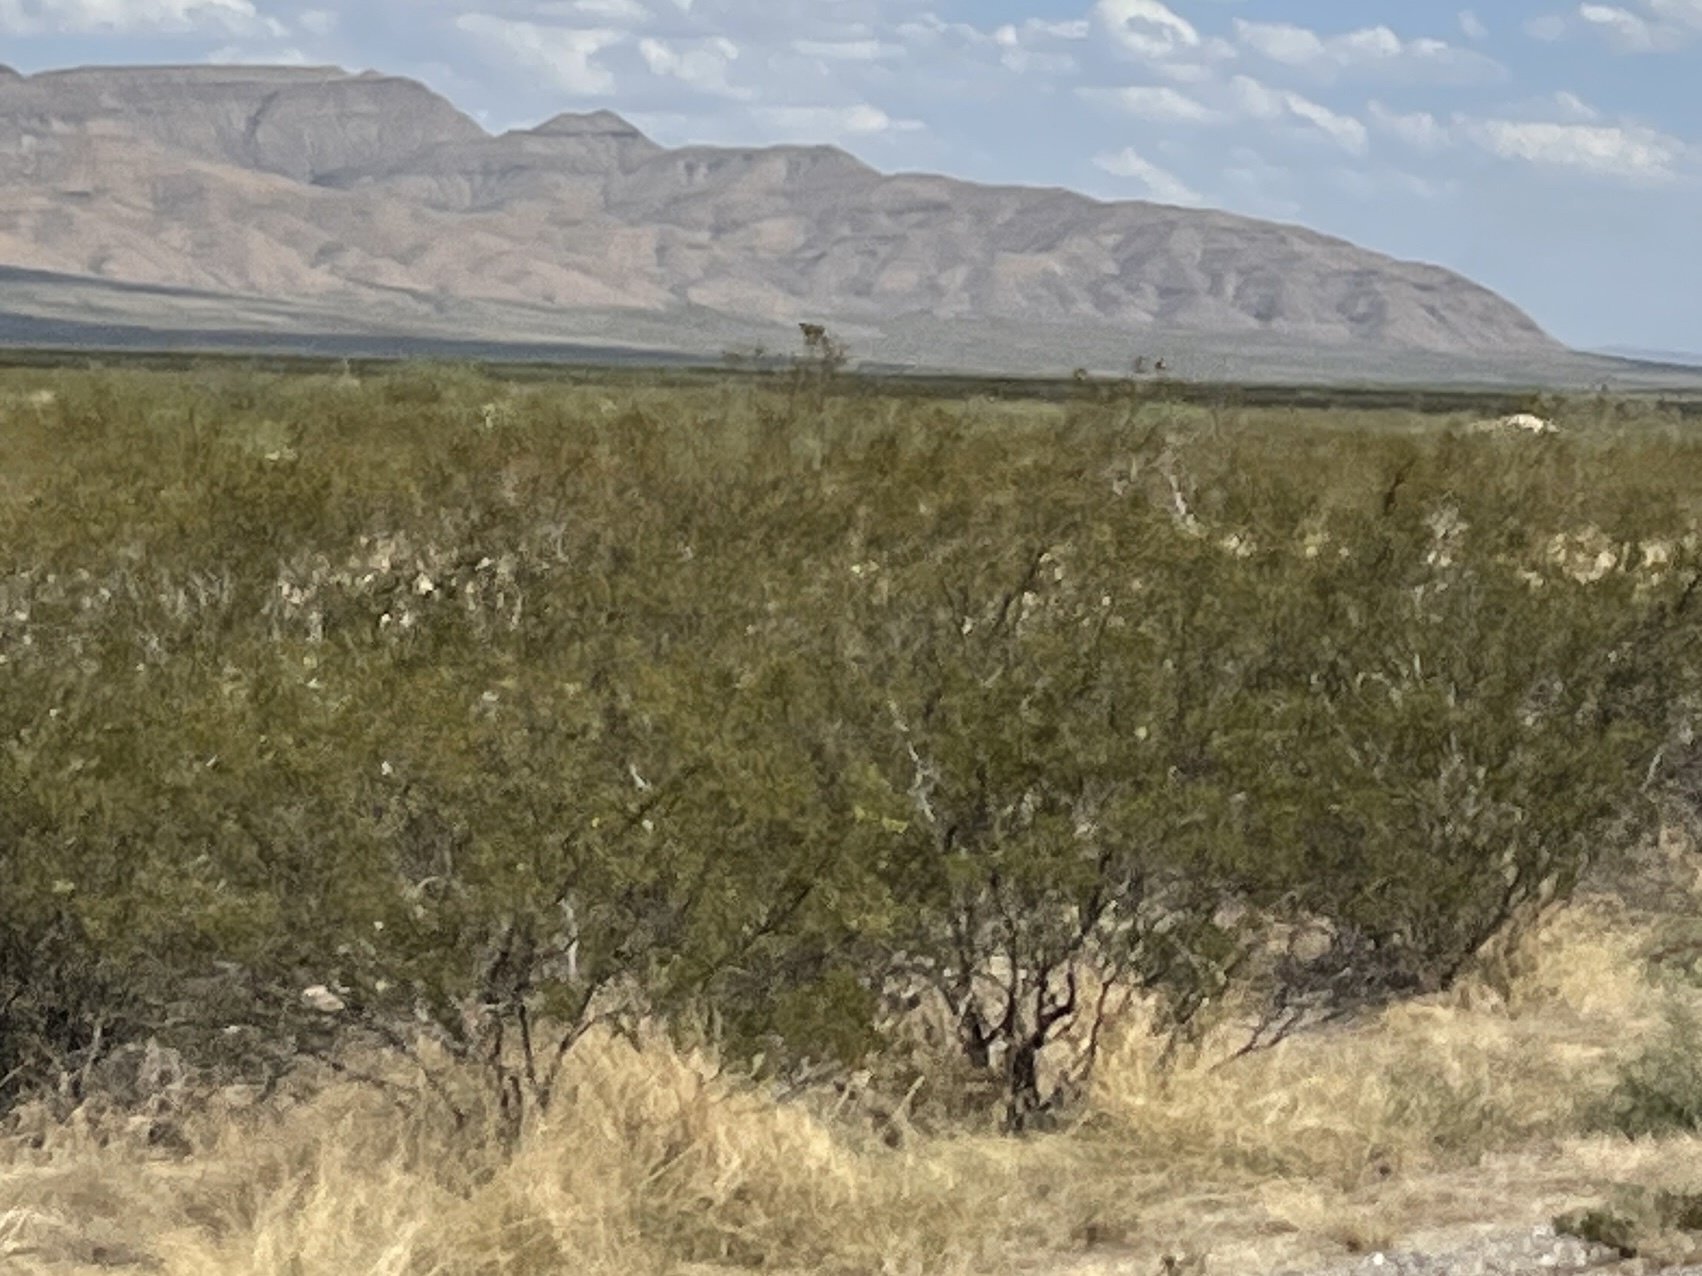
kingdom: Plantae
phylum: Tracheophyta
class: Magnoliopsida
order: Zygophyllales
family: Zygophyllaceae
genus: Larrea
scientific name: Larrea tridentata
